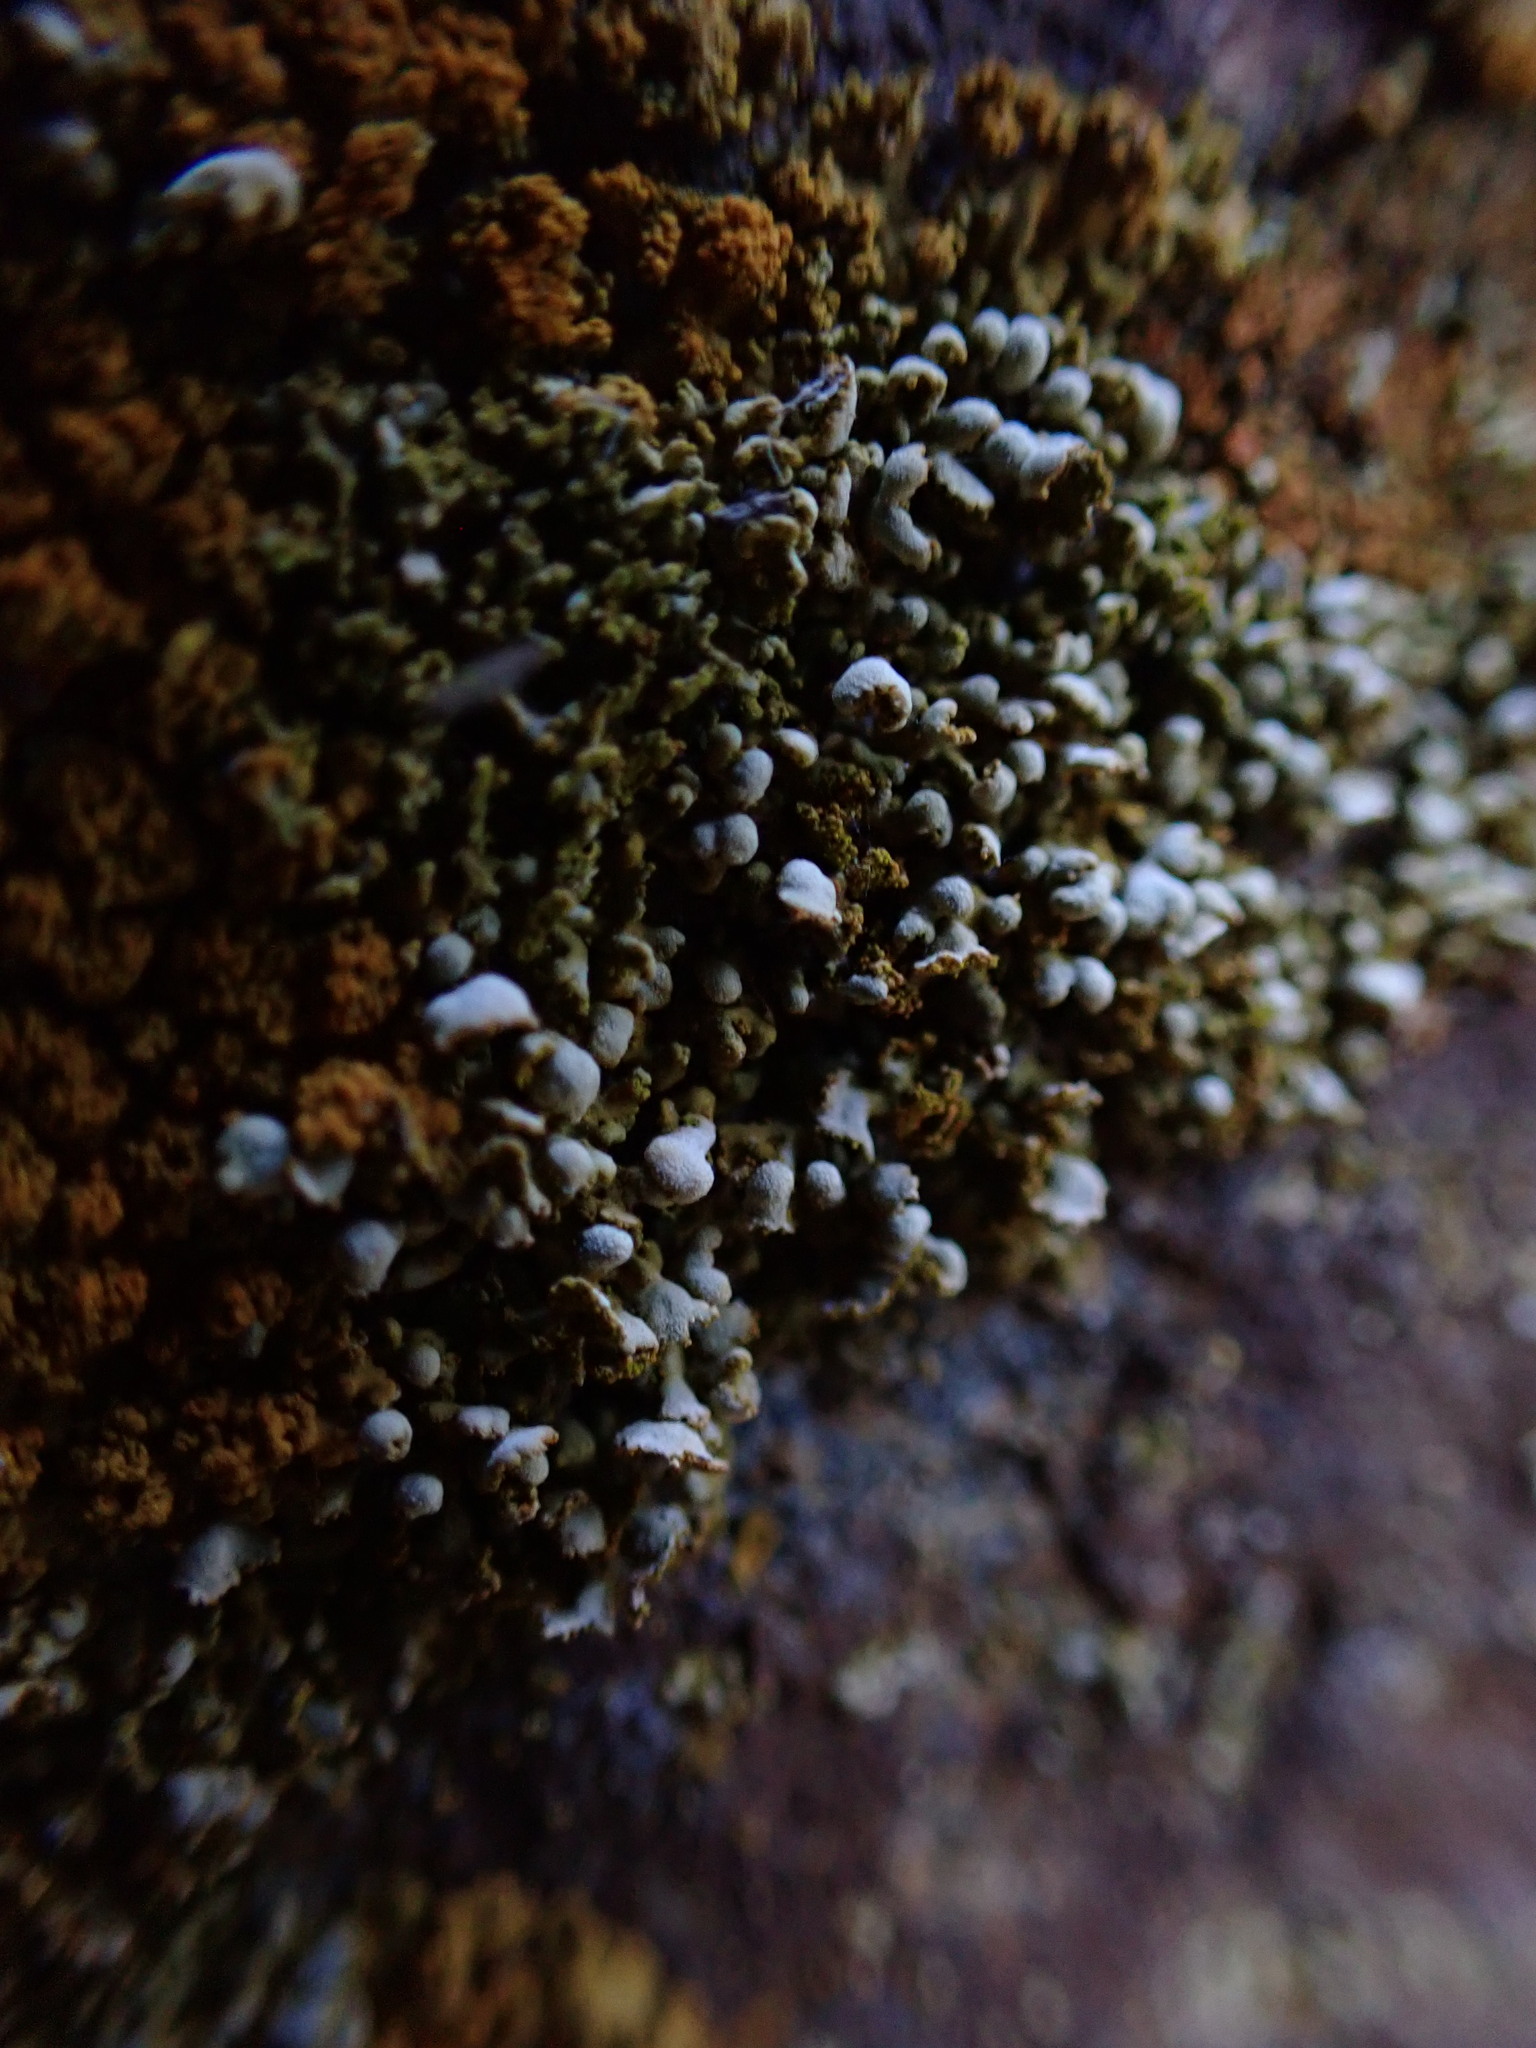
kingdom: Fungi
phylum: Ascomycota
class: Lecanoromycetes
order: Teloschistales
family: Teloschistaceae
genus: Xanthomendoza
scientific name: Xanthomendoza mendozae
